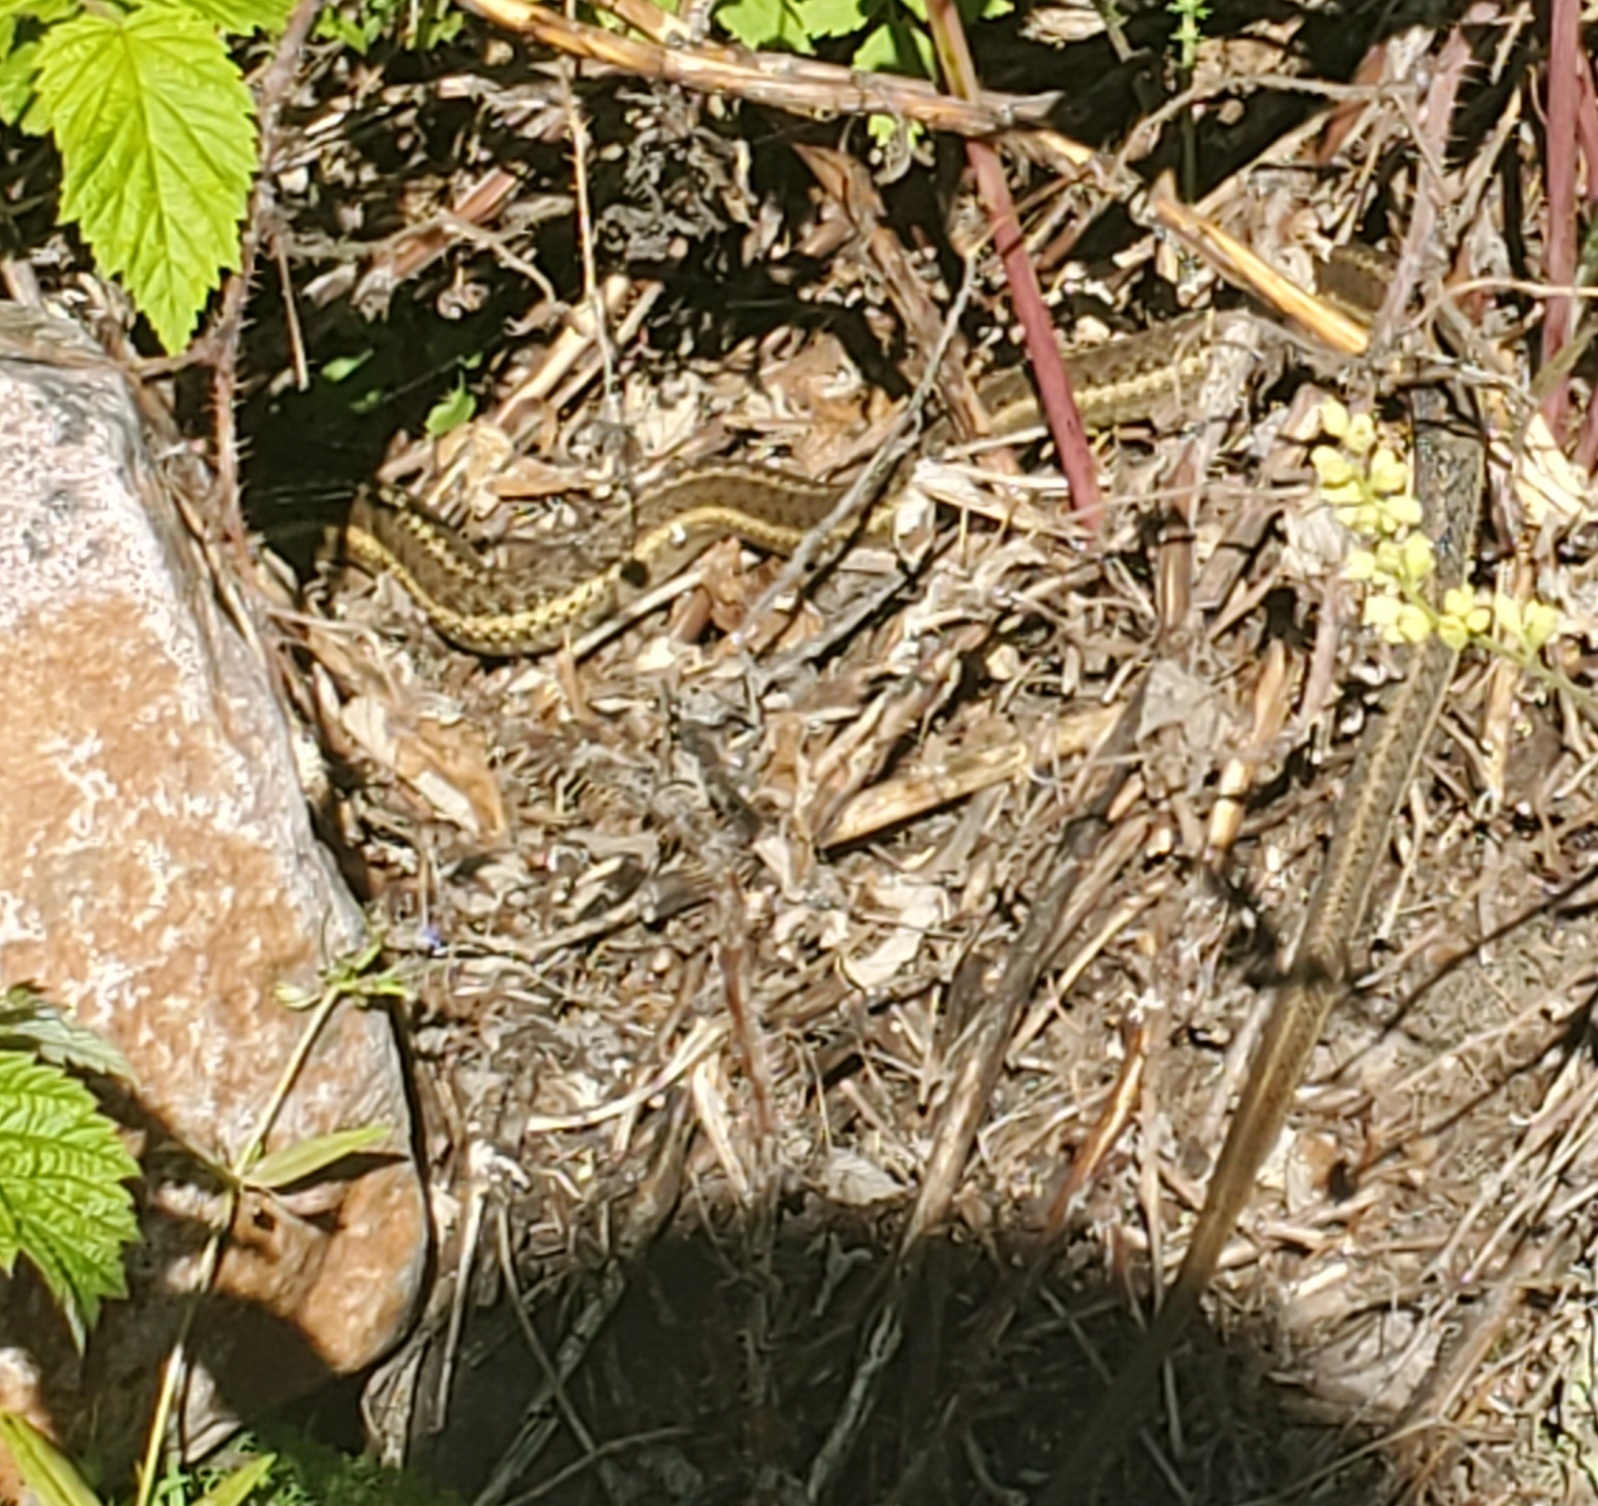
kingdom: Animalia
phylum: Chordata
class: Squamata
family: Colubridae
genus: Thamnophis
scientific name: Thamnophis elegans
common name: Western terrestrial garter snake
